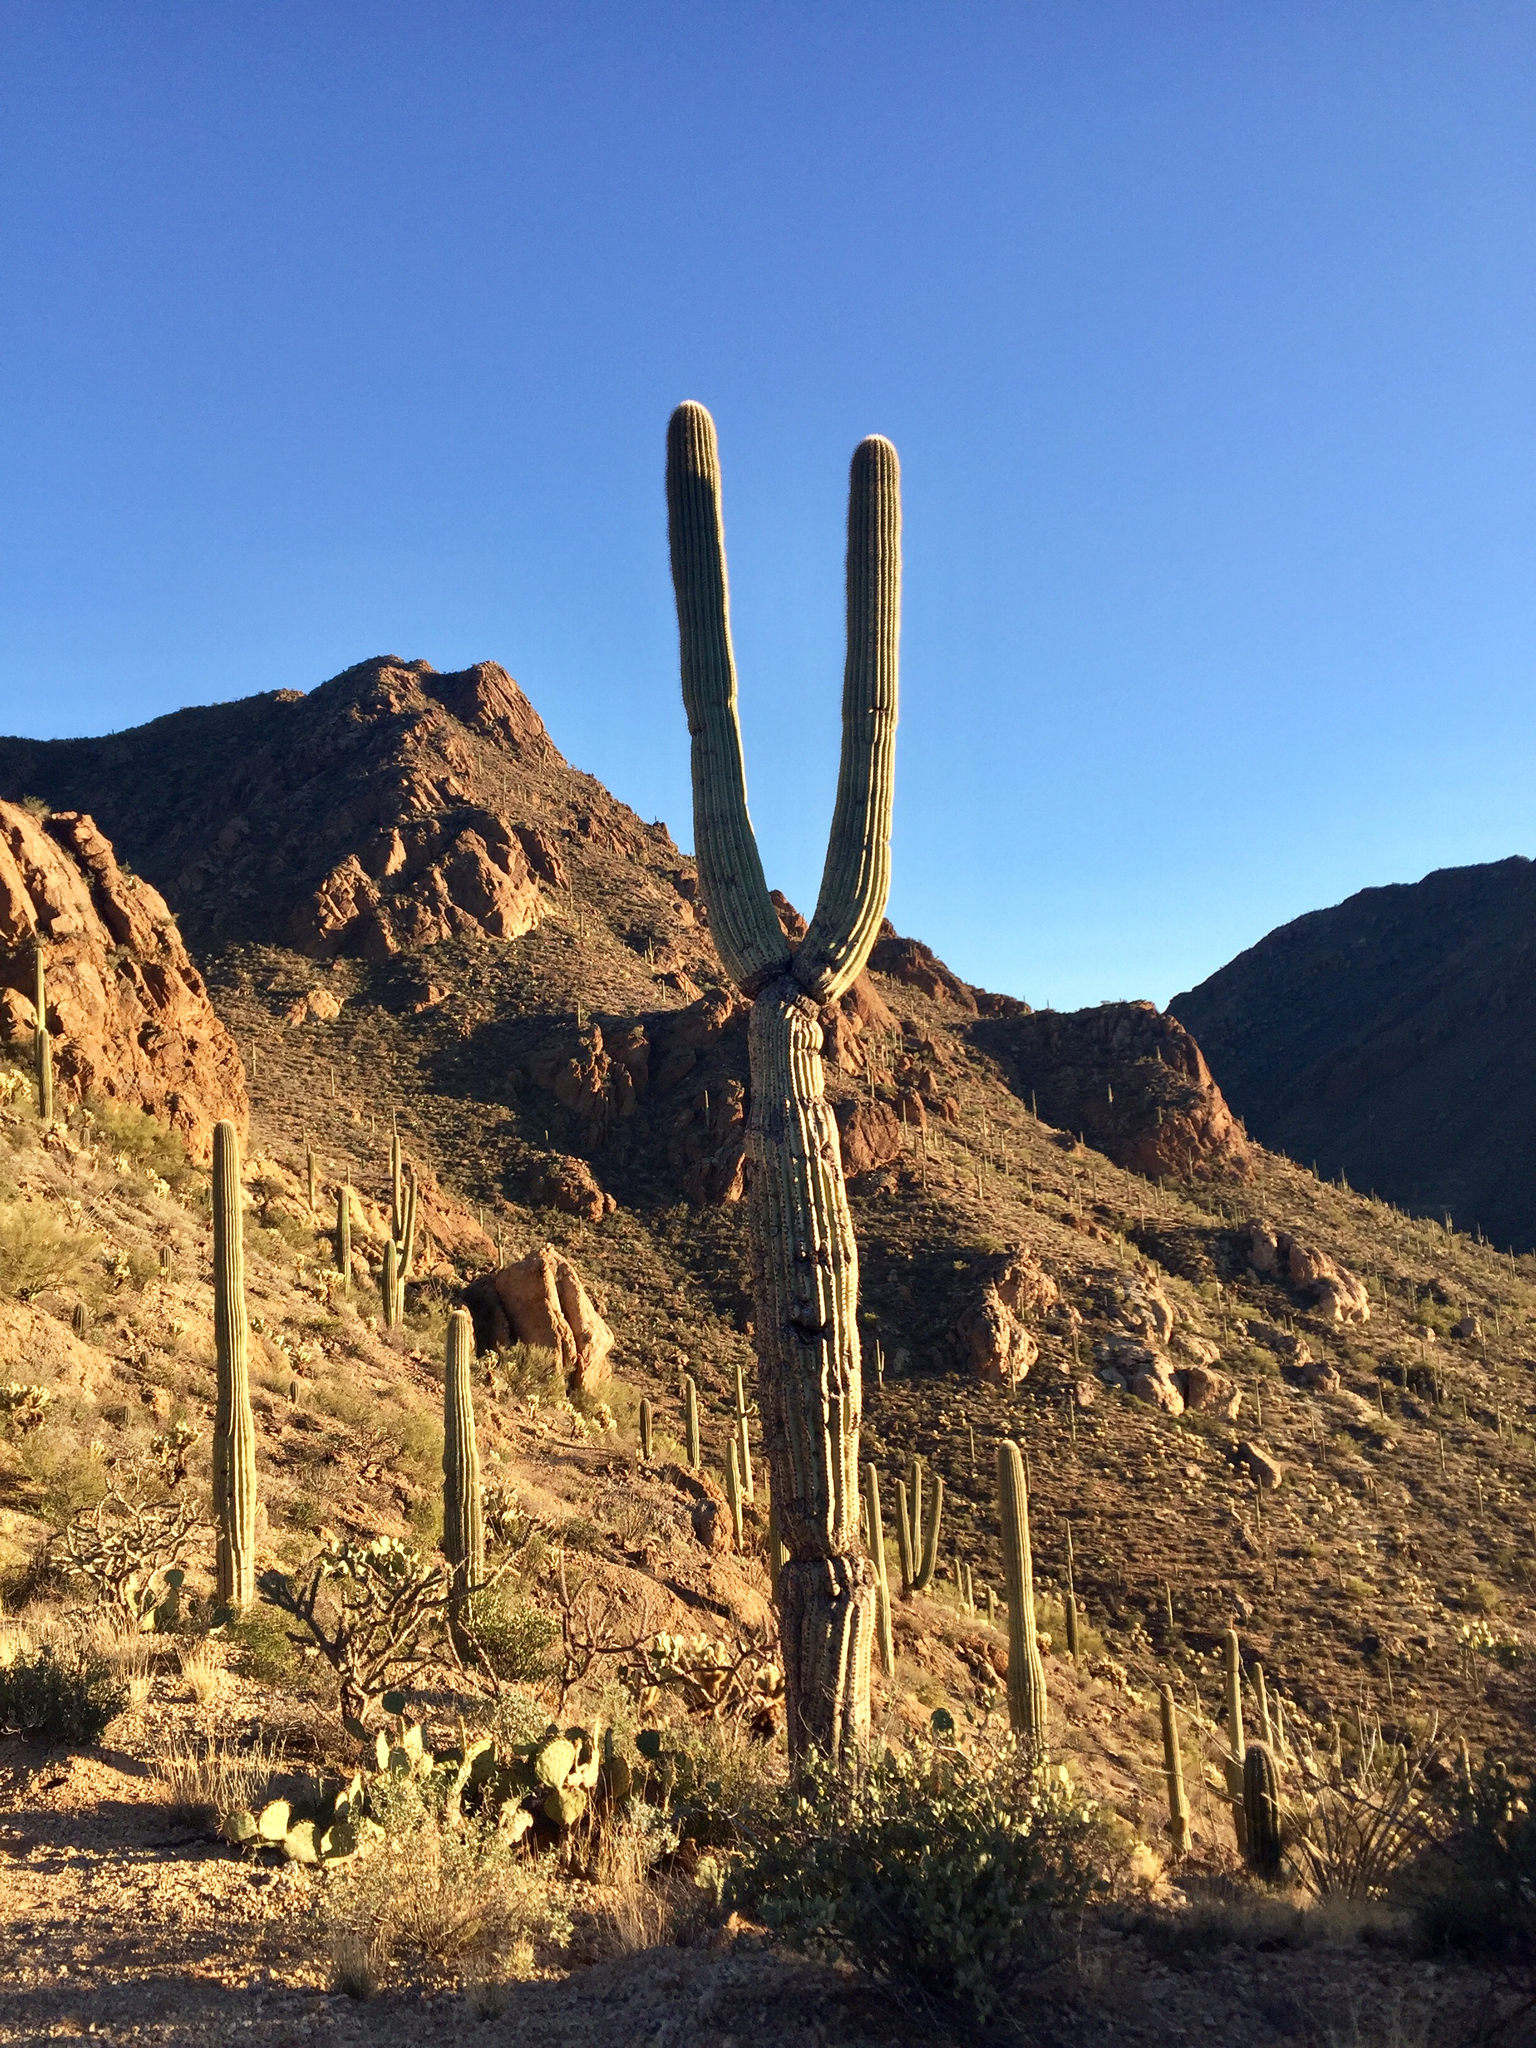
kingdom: Plantae
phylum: Tracheophyta
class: Magnoliopsida
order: Caryophyllales
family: Cactaceae
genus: Carnegiea
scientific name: Carnegiea gigantea
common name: Saguaro
